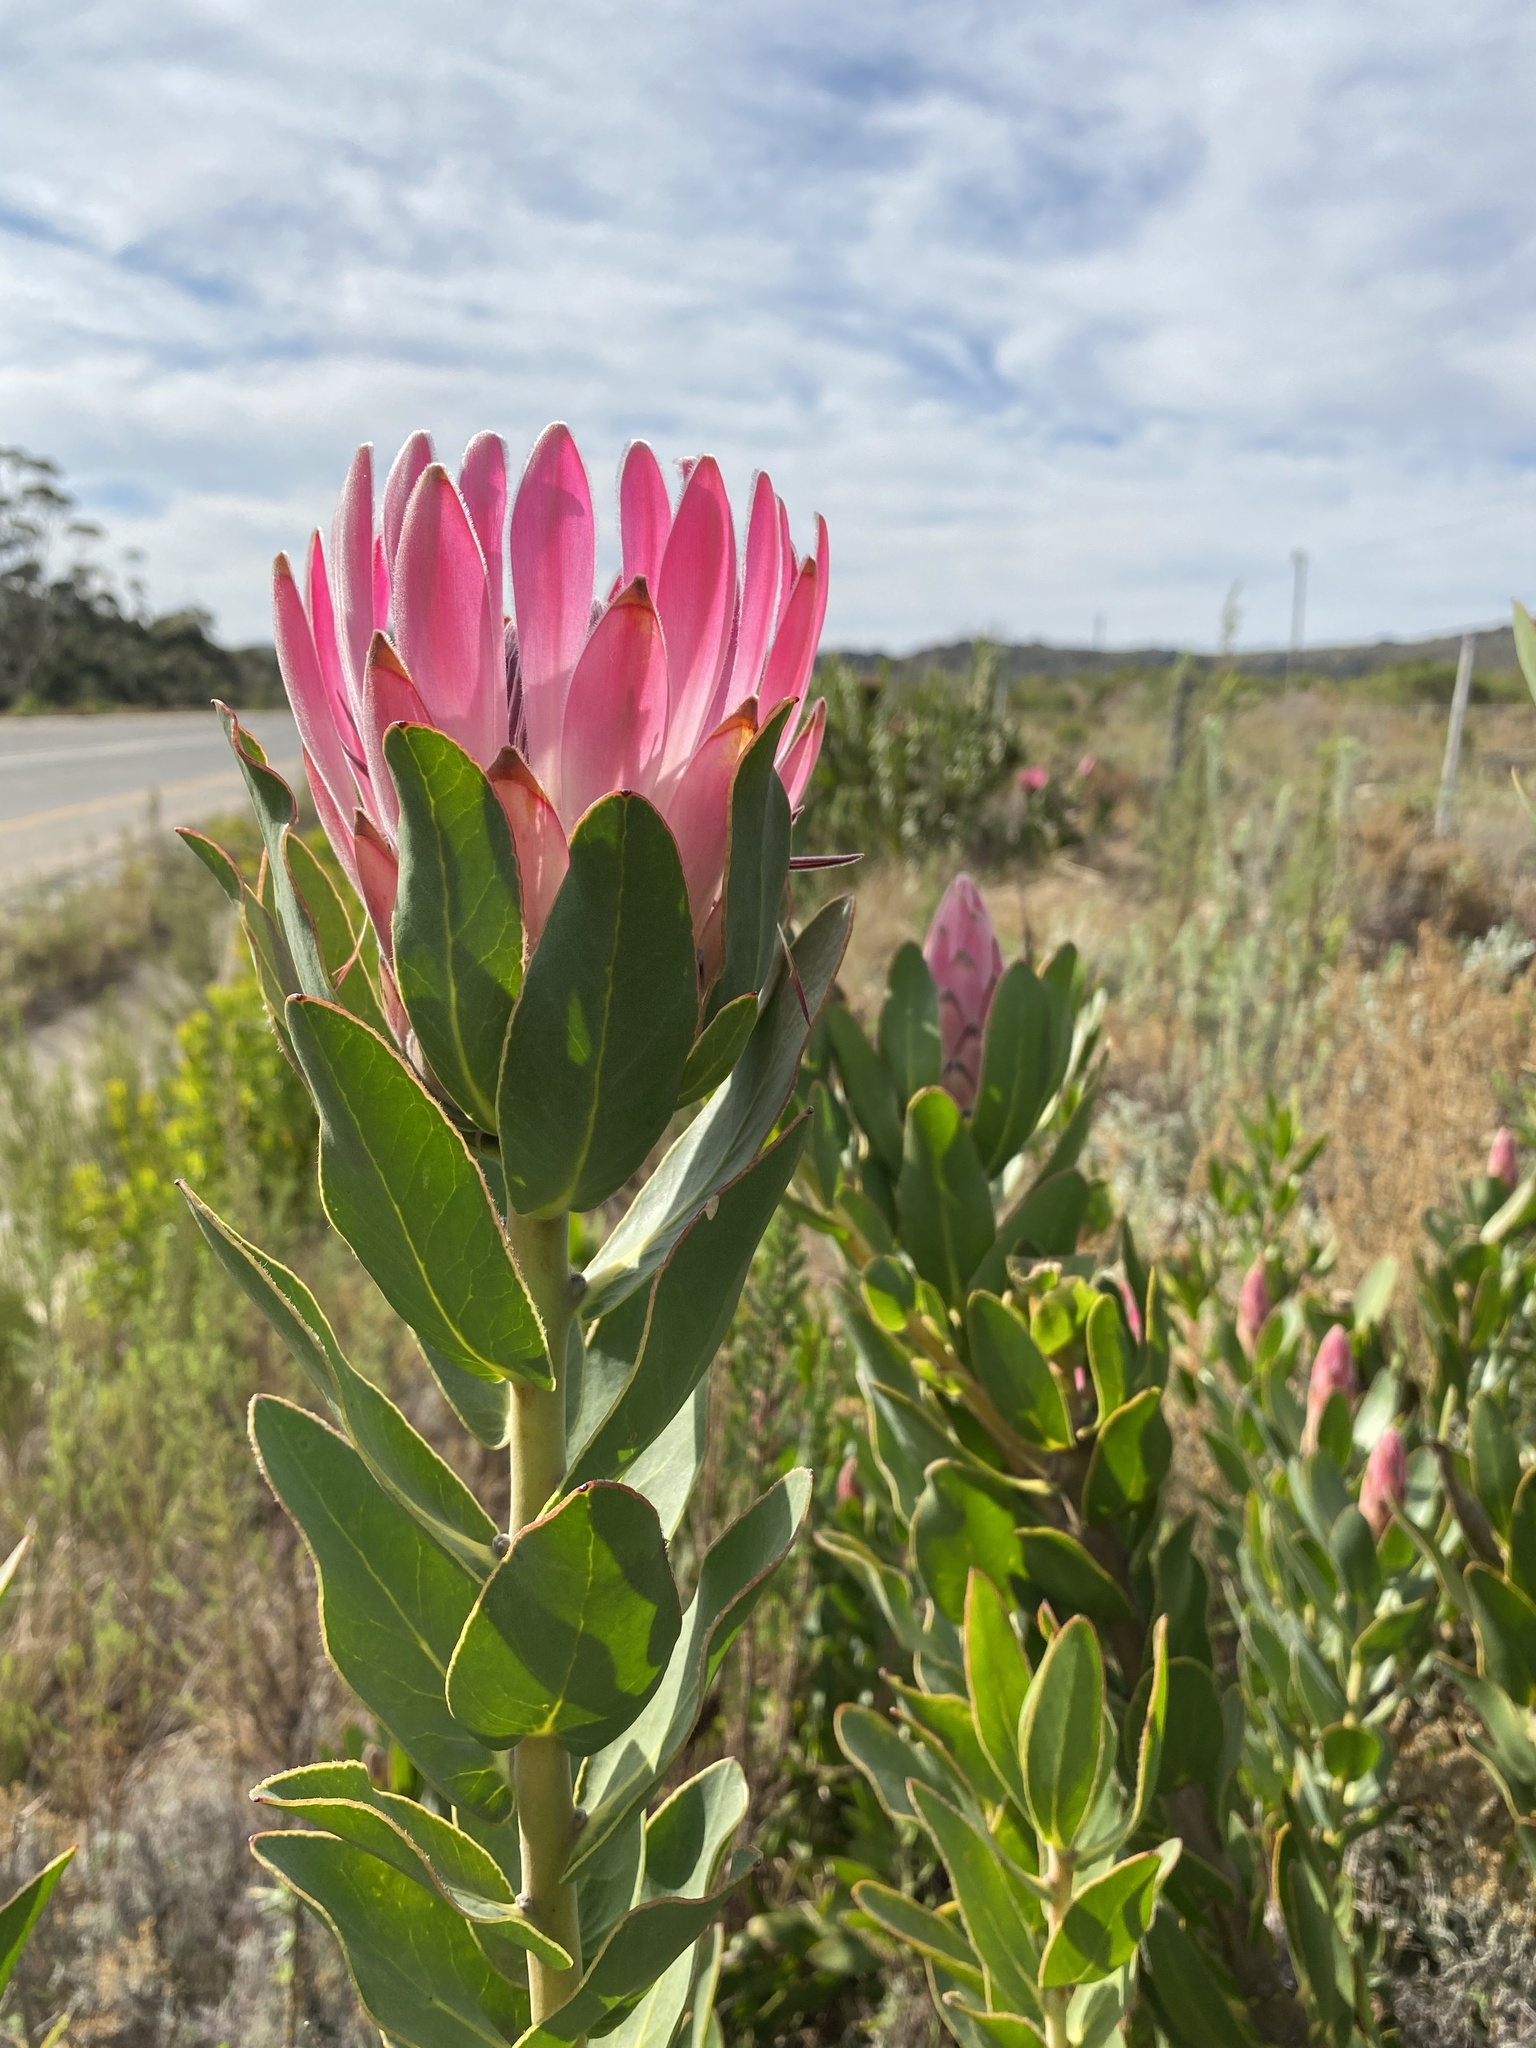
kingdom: Plantae
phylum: Tracheophyta
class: Magnoliopsida
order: Proteales
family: Proteaceae
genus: Protea
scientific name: Protea compacta
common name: Bot river protea
